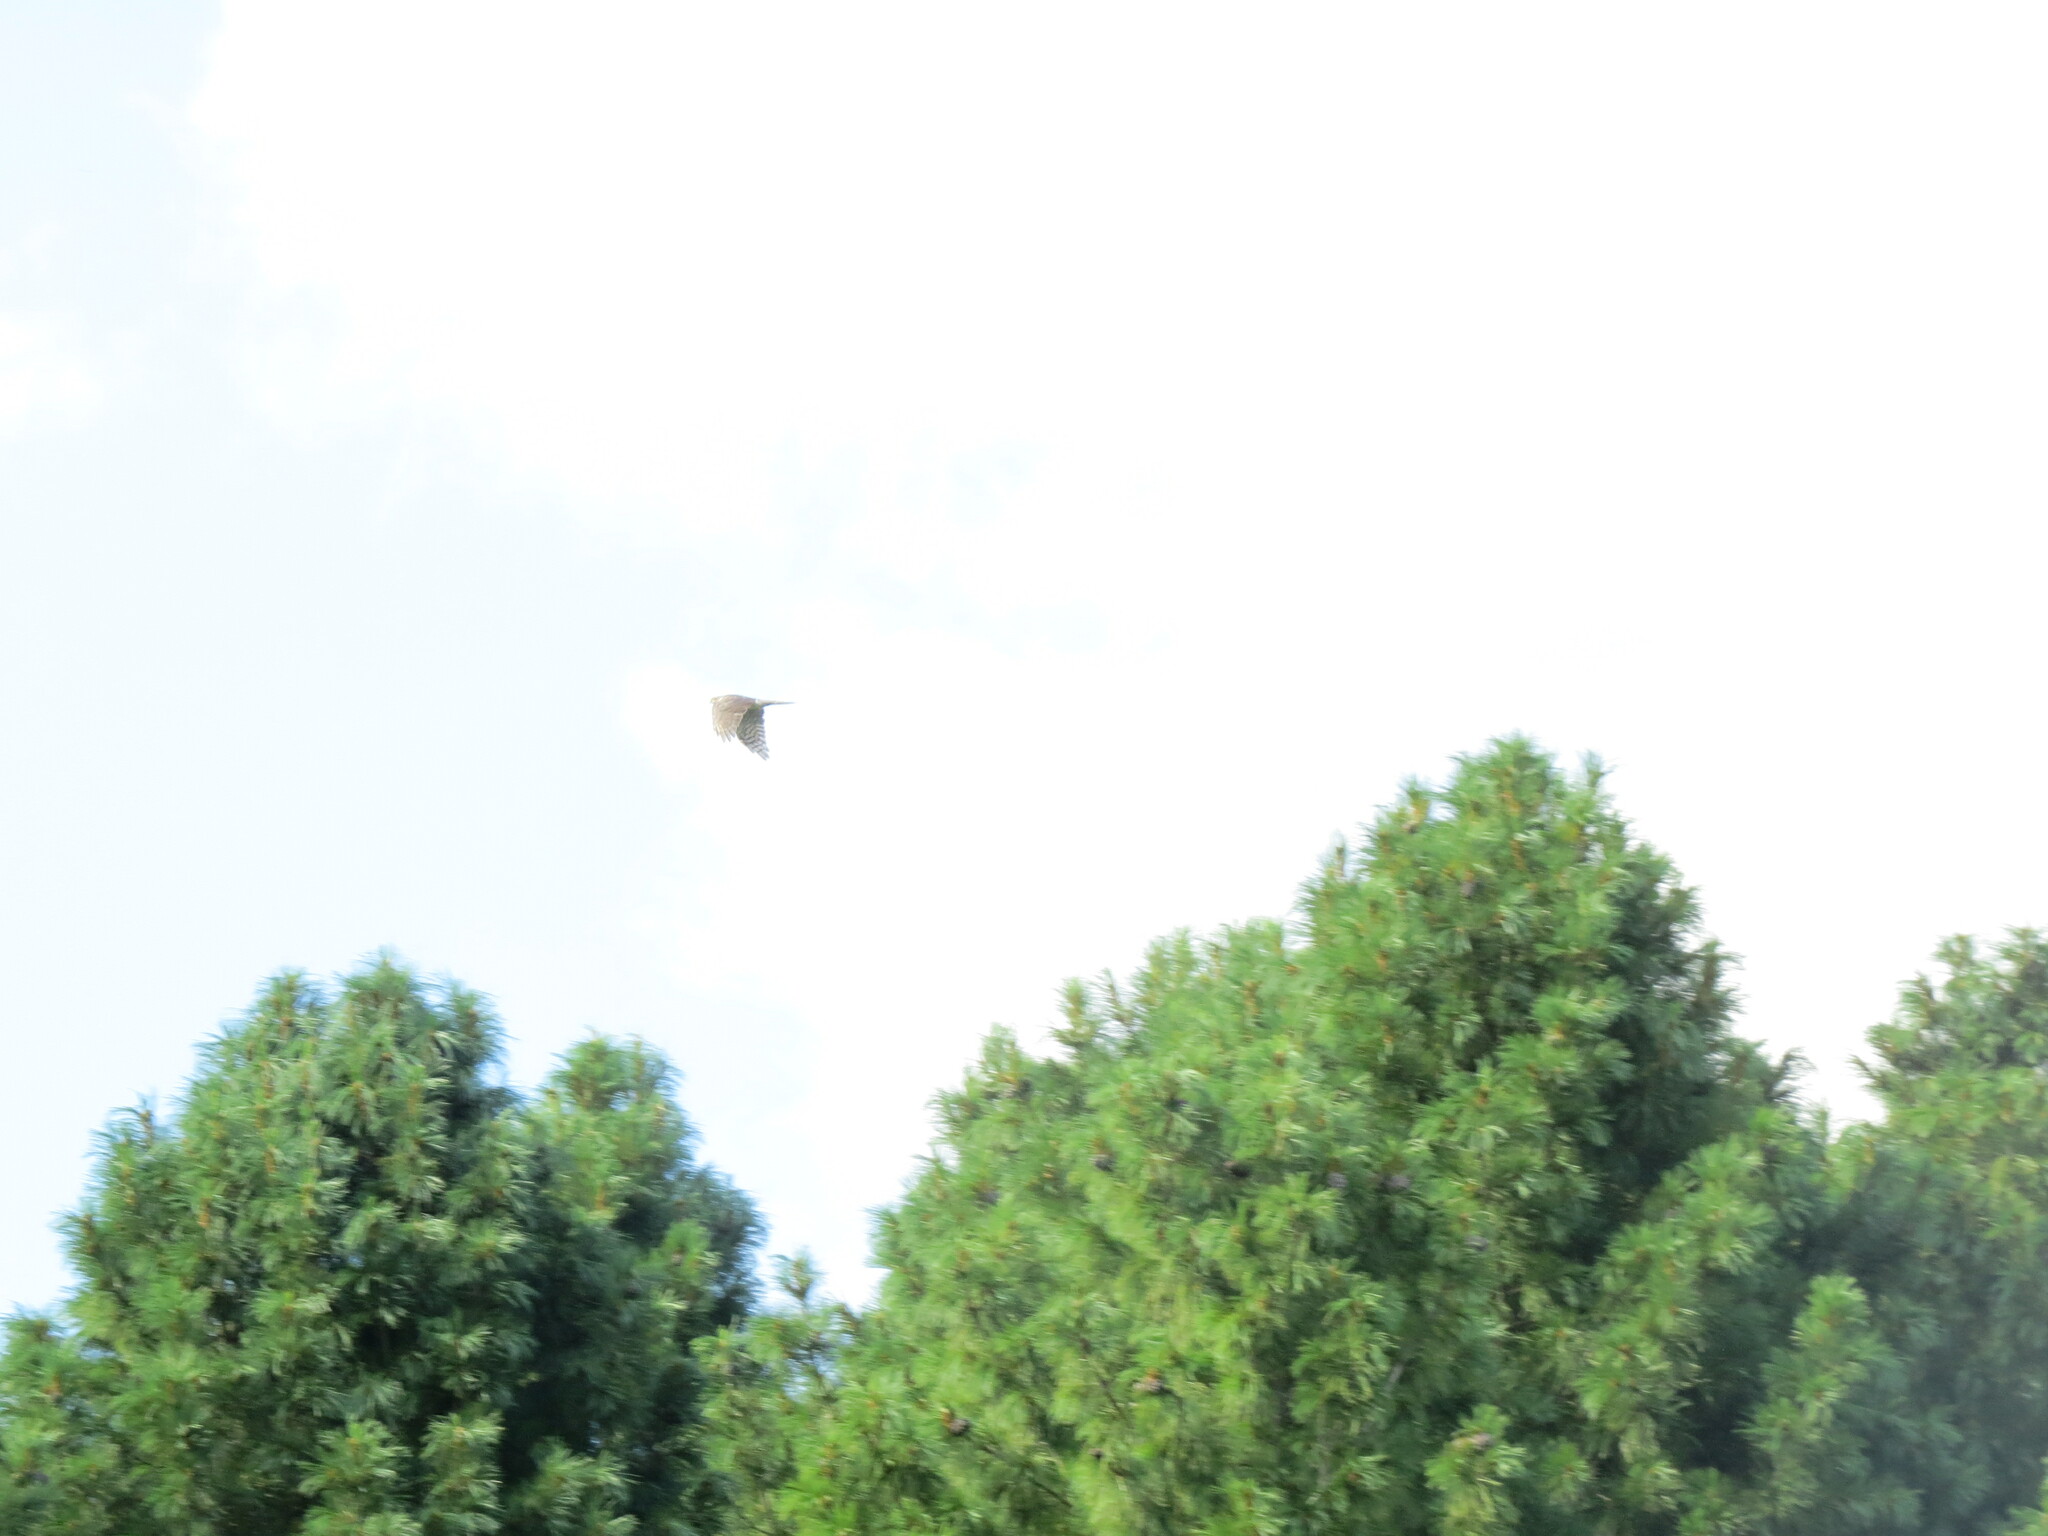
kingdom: Animalia
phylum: Chordata
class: Aves
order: Accipitriformes
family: Accipitridae
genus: Accipiter
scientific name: Accipiter nisus
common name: Eurasian sparrowhawk
